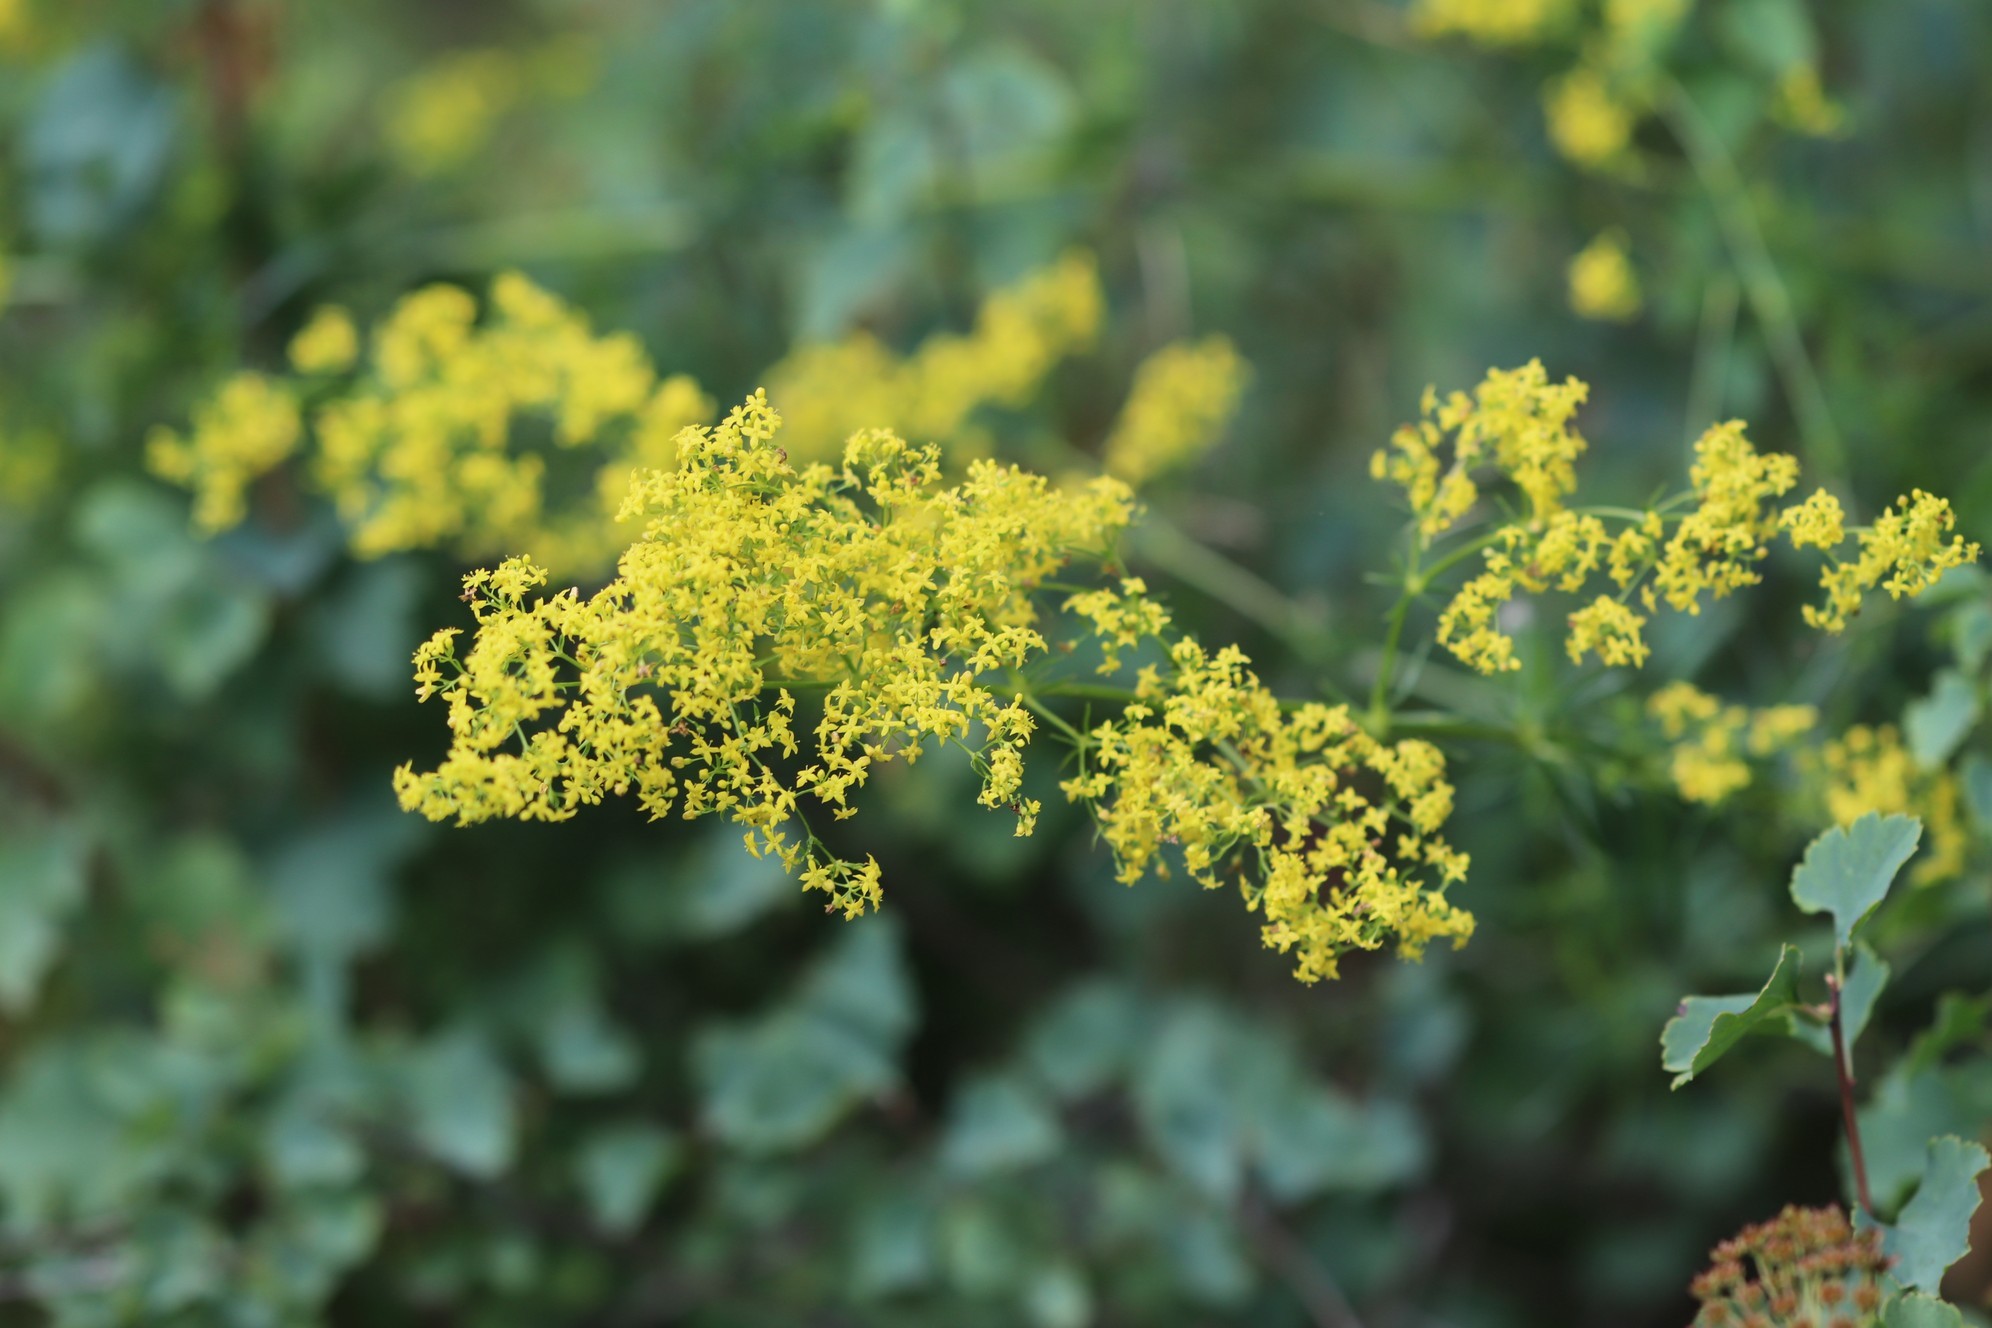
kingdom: Plantae
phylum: Tracheophyta
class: Magnoliopsida
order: Gentianales
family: Rubiaceae
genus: Galium
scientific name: Galium verum
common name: Lady's bedstraw
